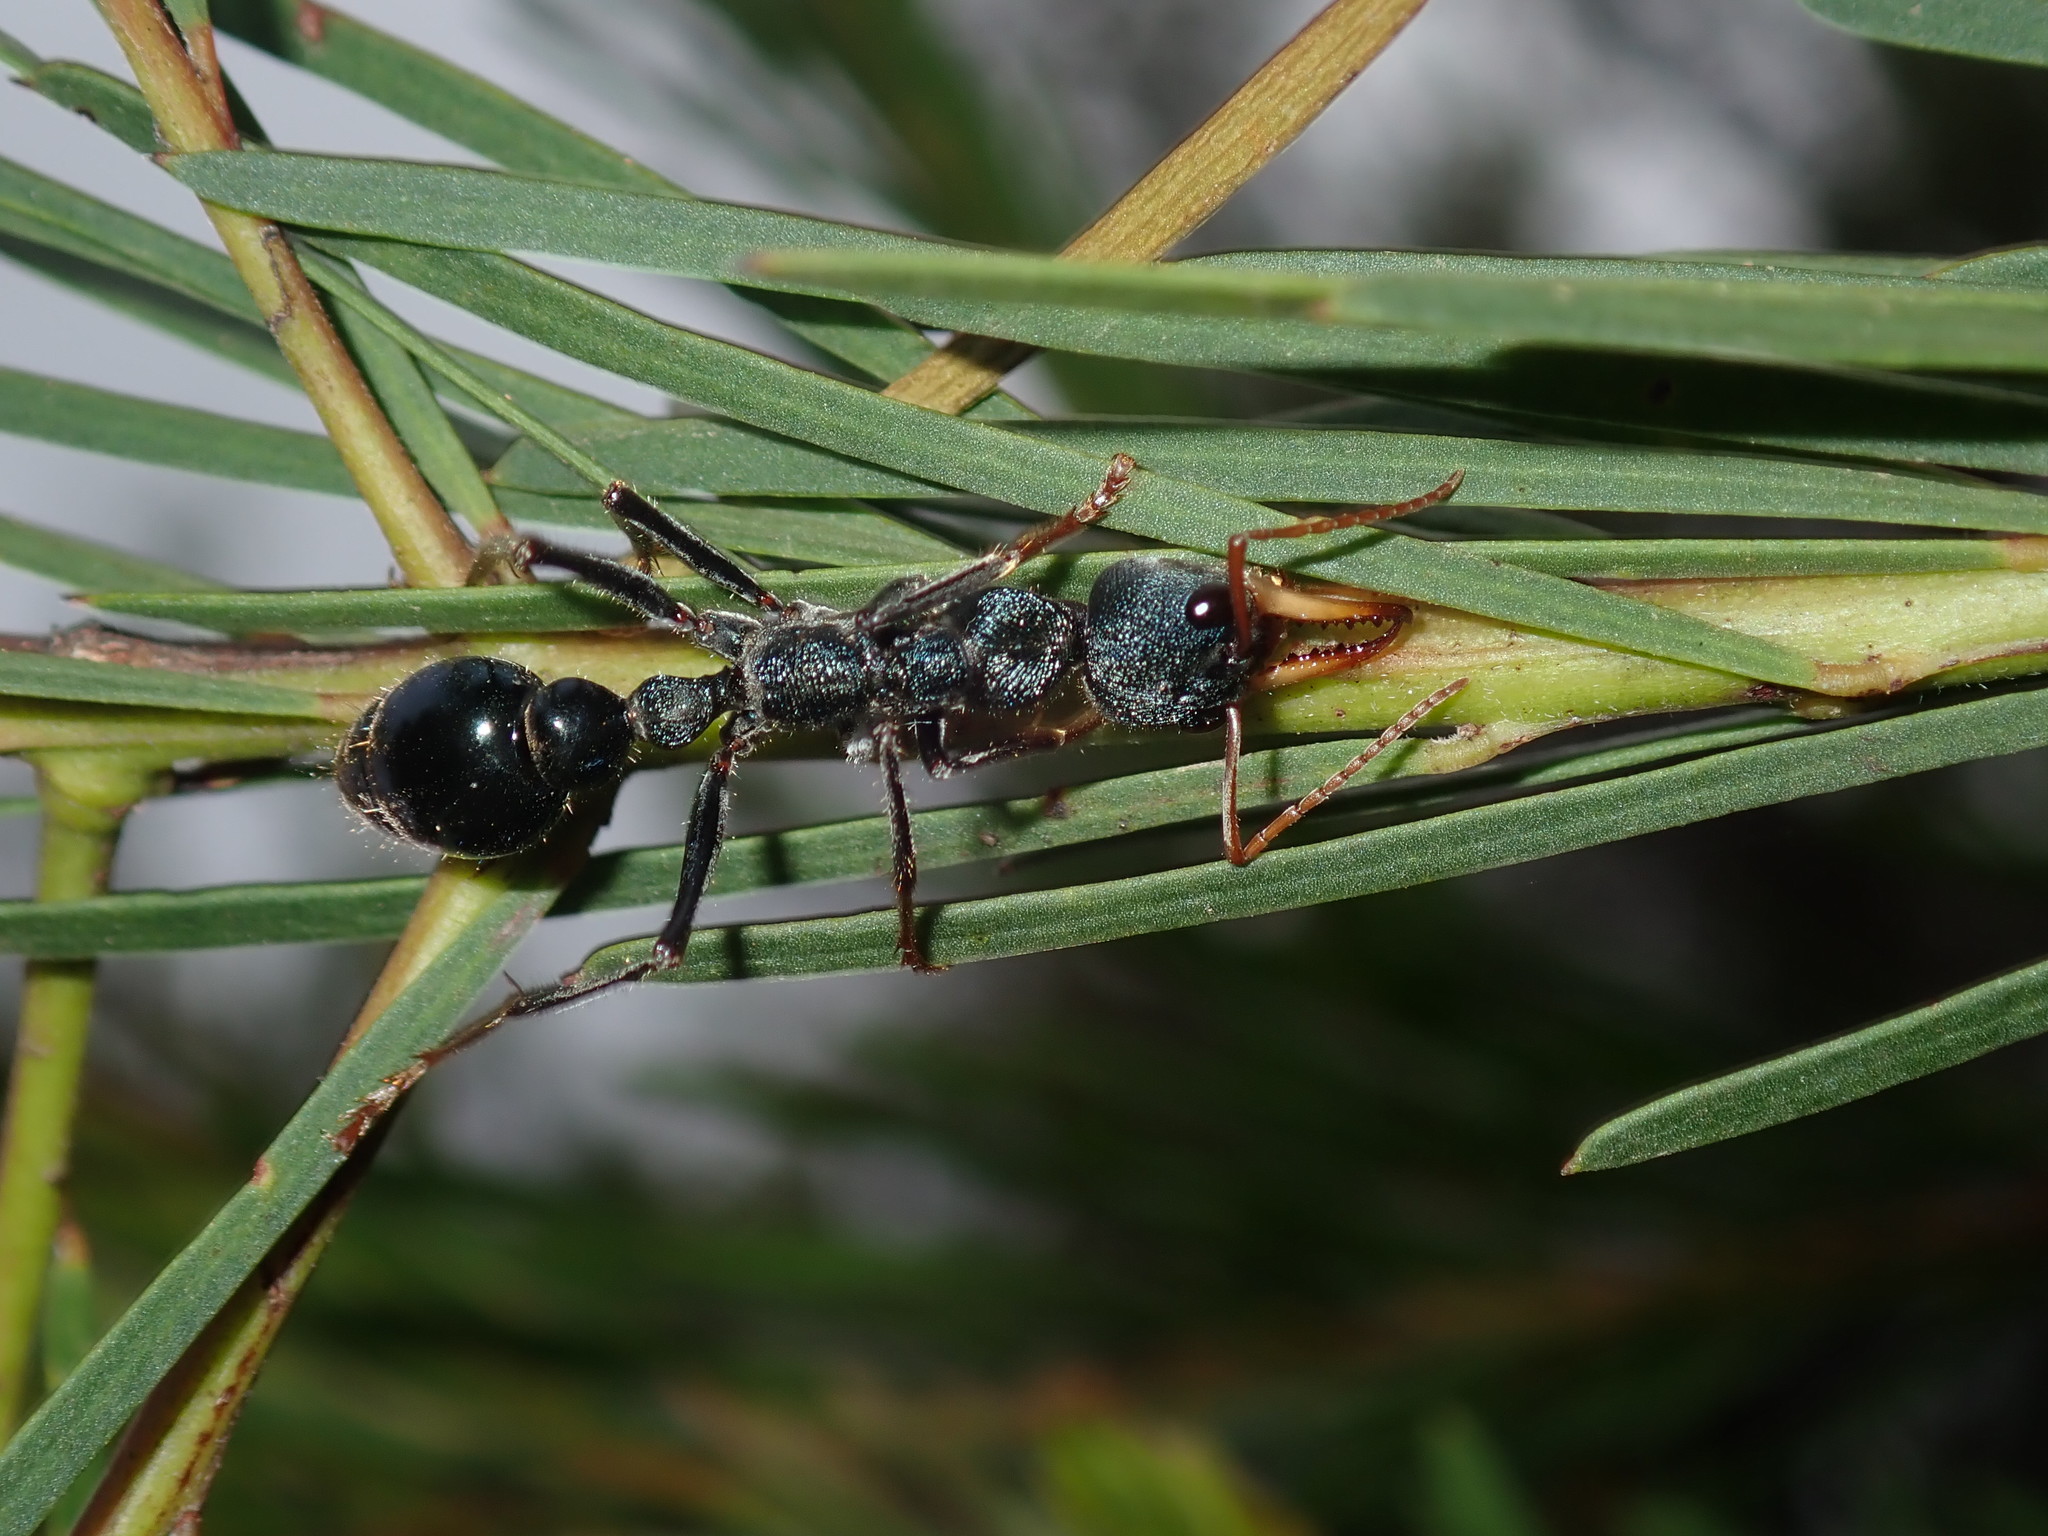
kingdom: Animalia
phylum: Arthropoda
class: Insecta
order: Hymenoptera
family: Formicidae
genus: Myrmecia
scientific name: Myrmecia tarsata
